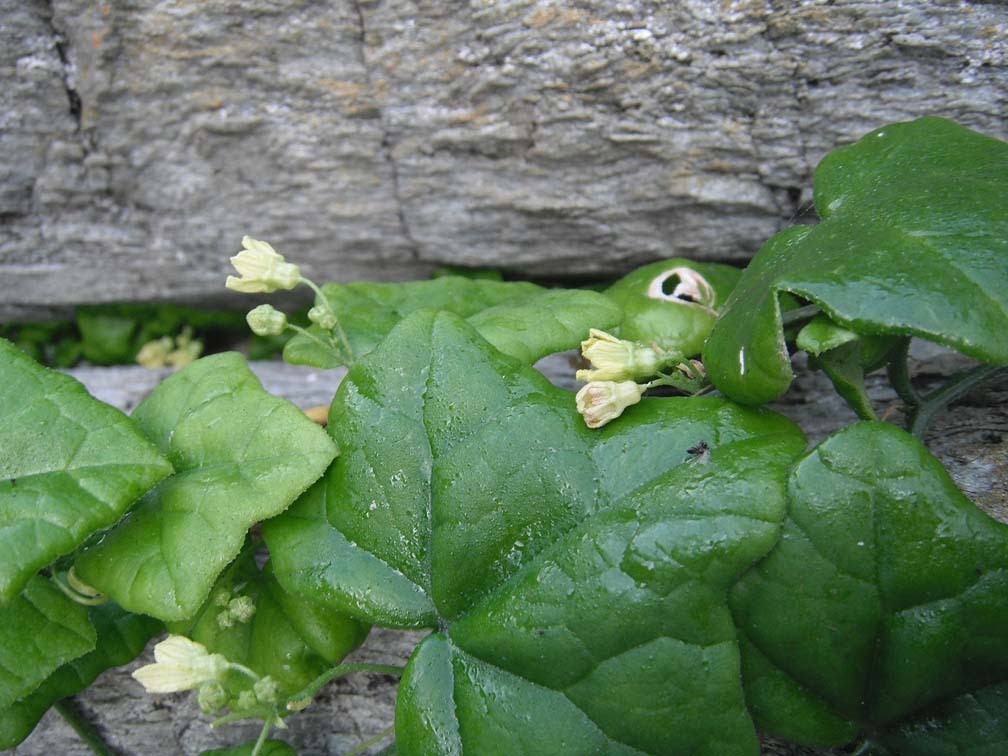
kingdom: Plantae
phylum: Tracheophyta
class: Magnoliopsida
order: Cucurbitales
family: Cucurbitaceae
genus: Kedrostis
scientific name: Kedrostis nana
